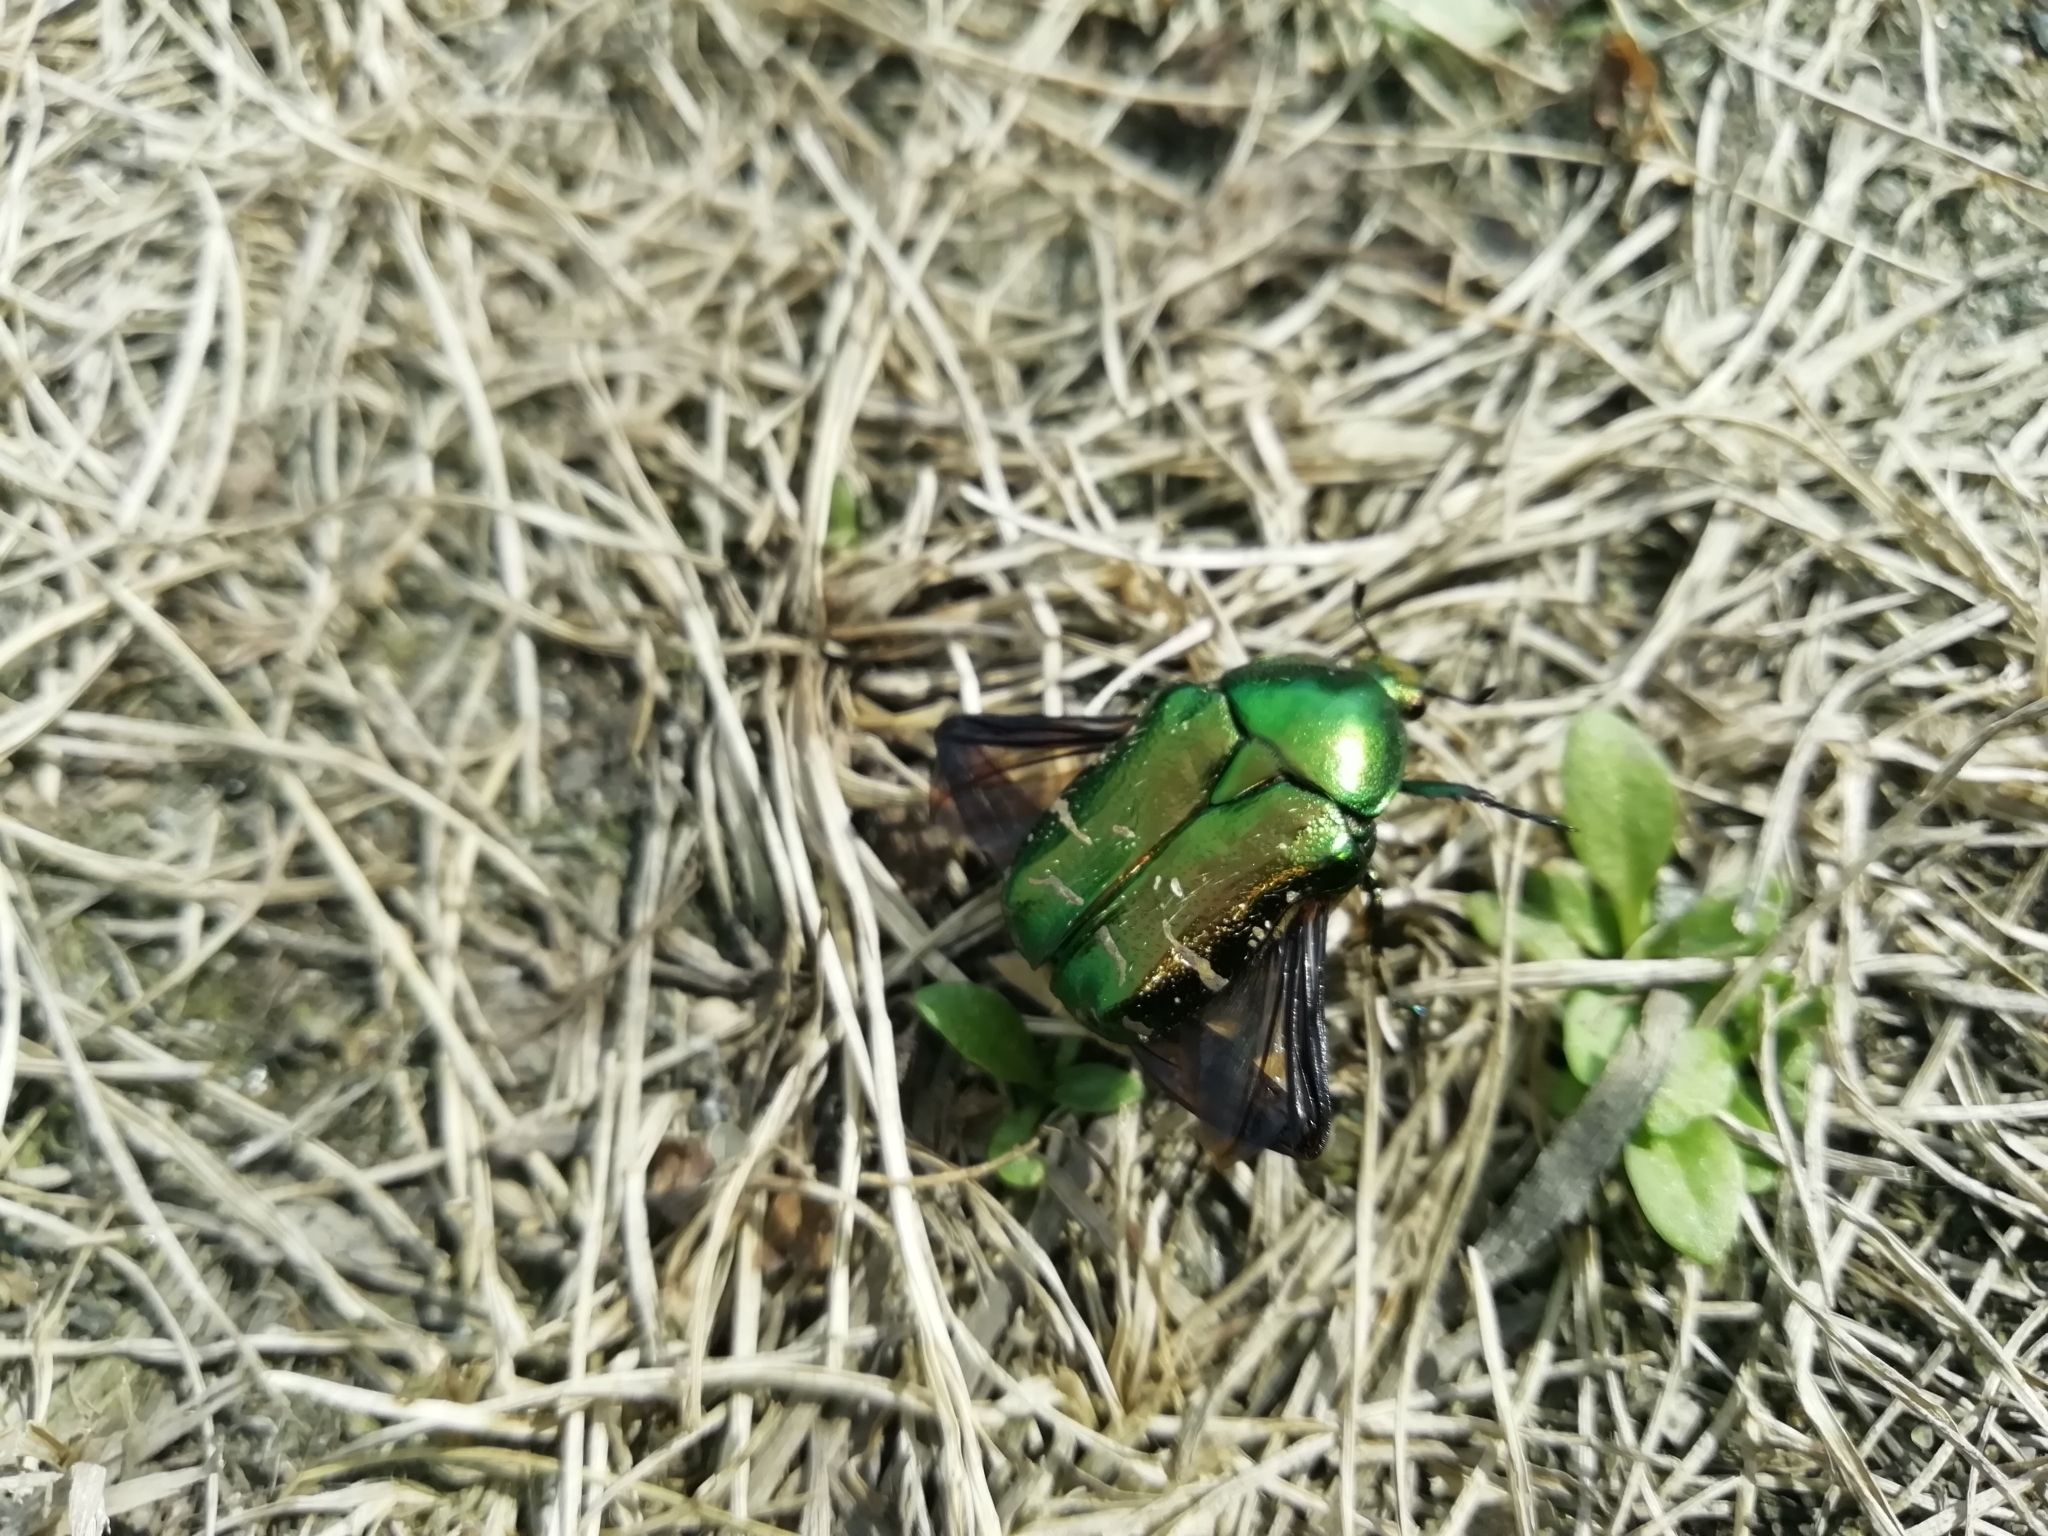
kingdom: Animalia
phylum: Arthropoda
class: Insecta
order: Coleoptera
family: Scarabaeidae
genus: Cetonia
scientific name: Cetonia aurata
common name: Rose chafer
